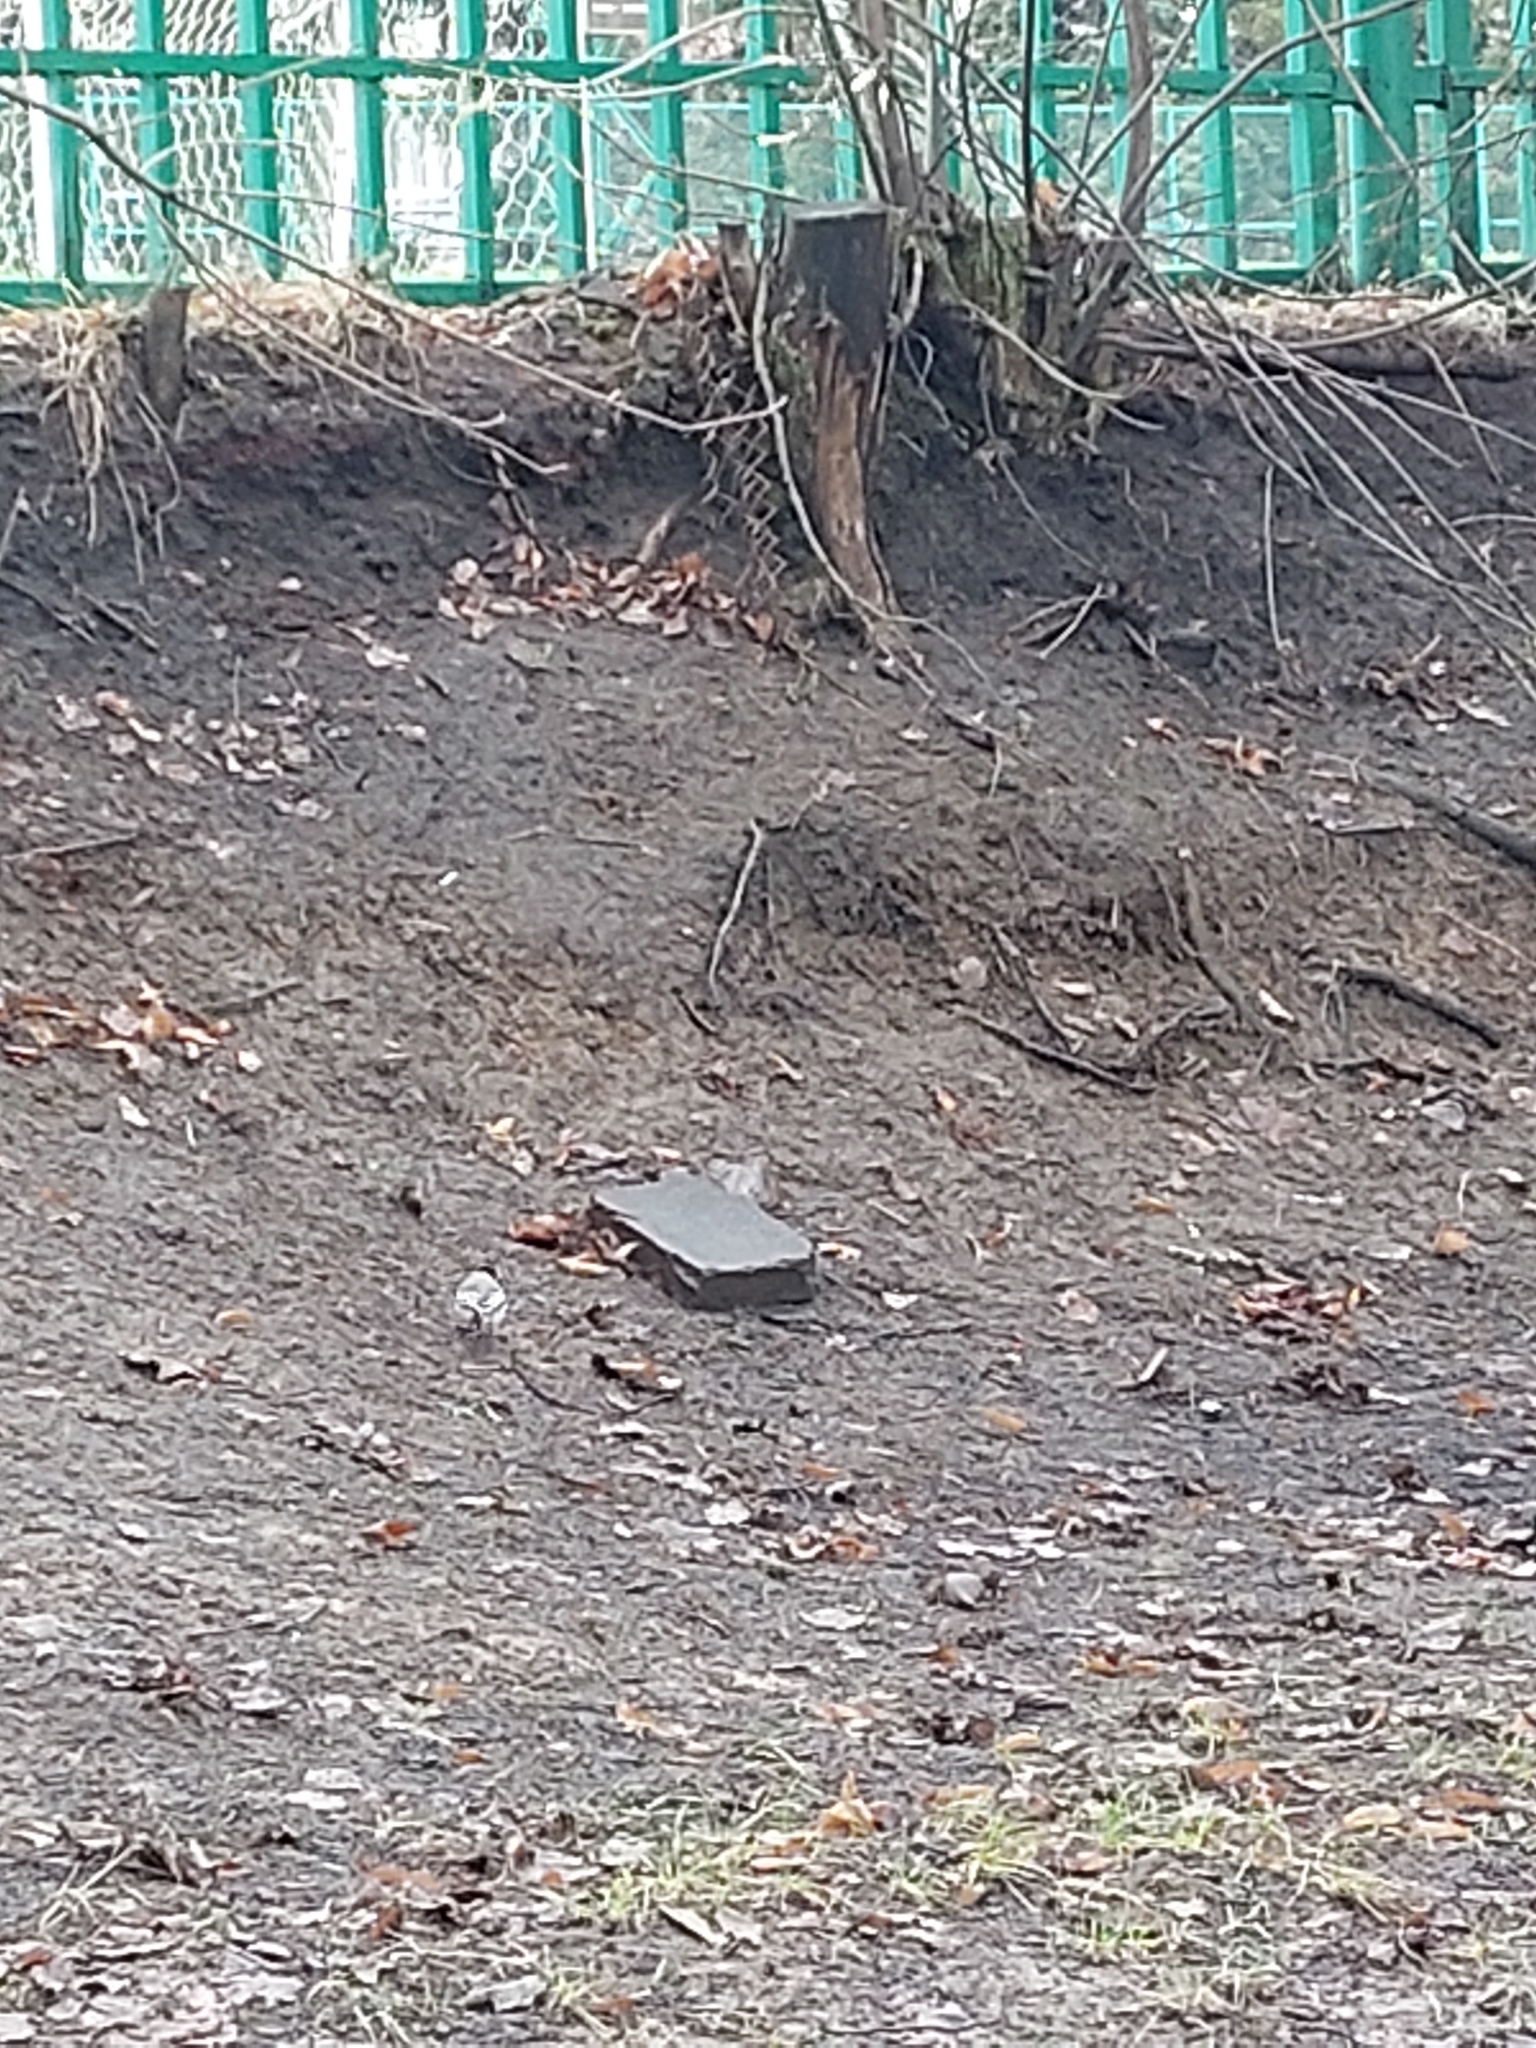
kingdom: Animalia
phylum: Chordata
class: Aves
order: Passeriformes
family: Motacillidae
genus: Motacilla
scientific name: Motacilla alba
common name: White wagtail
